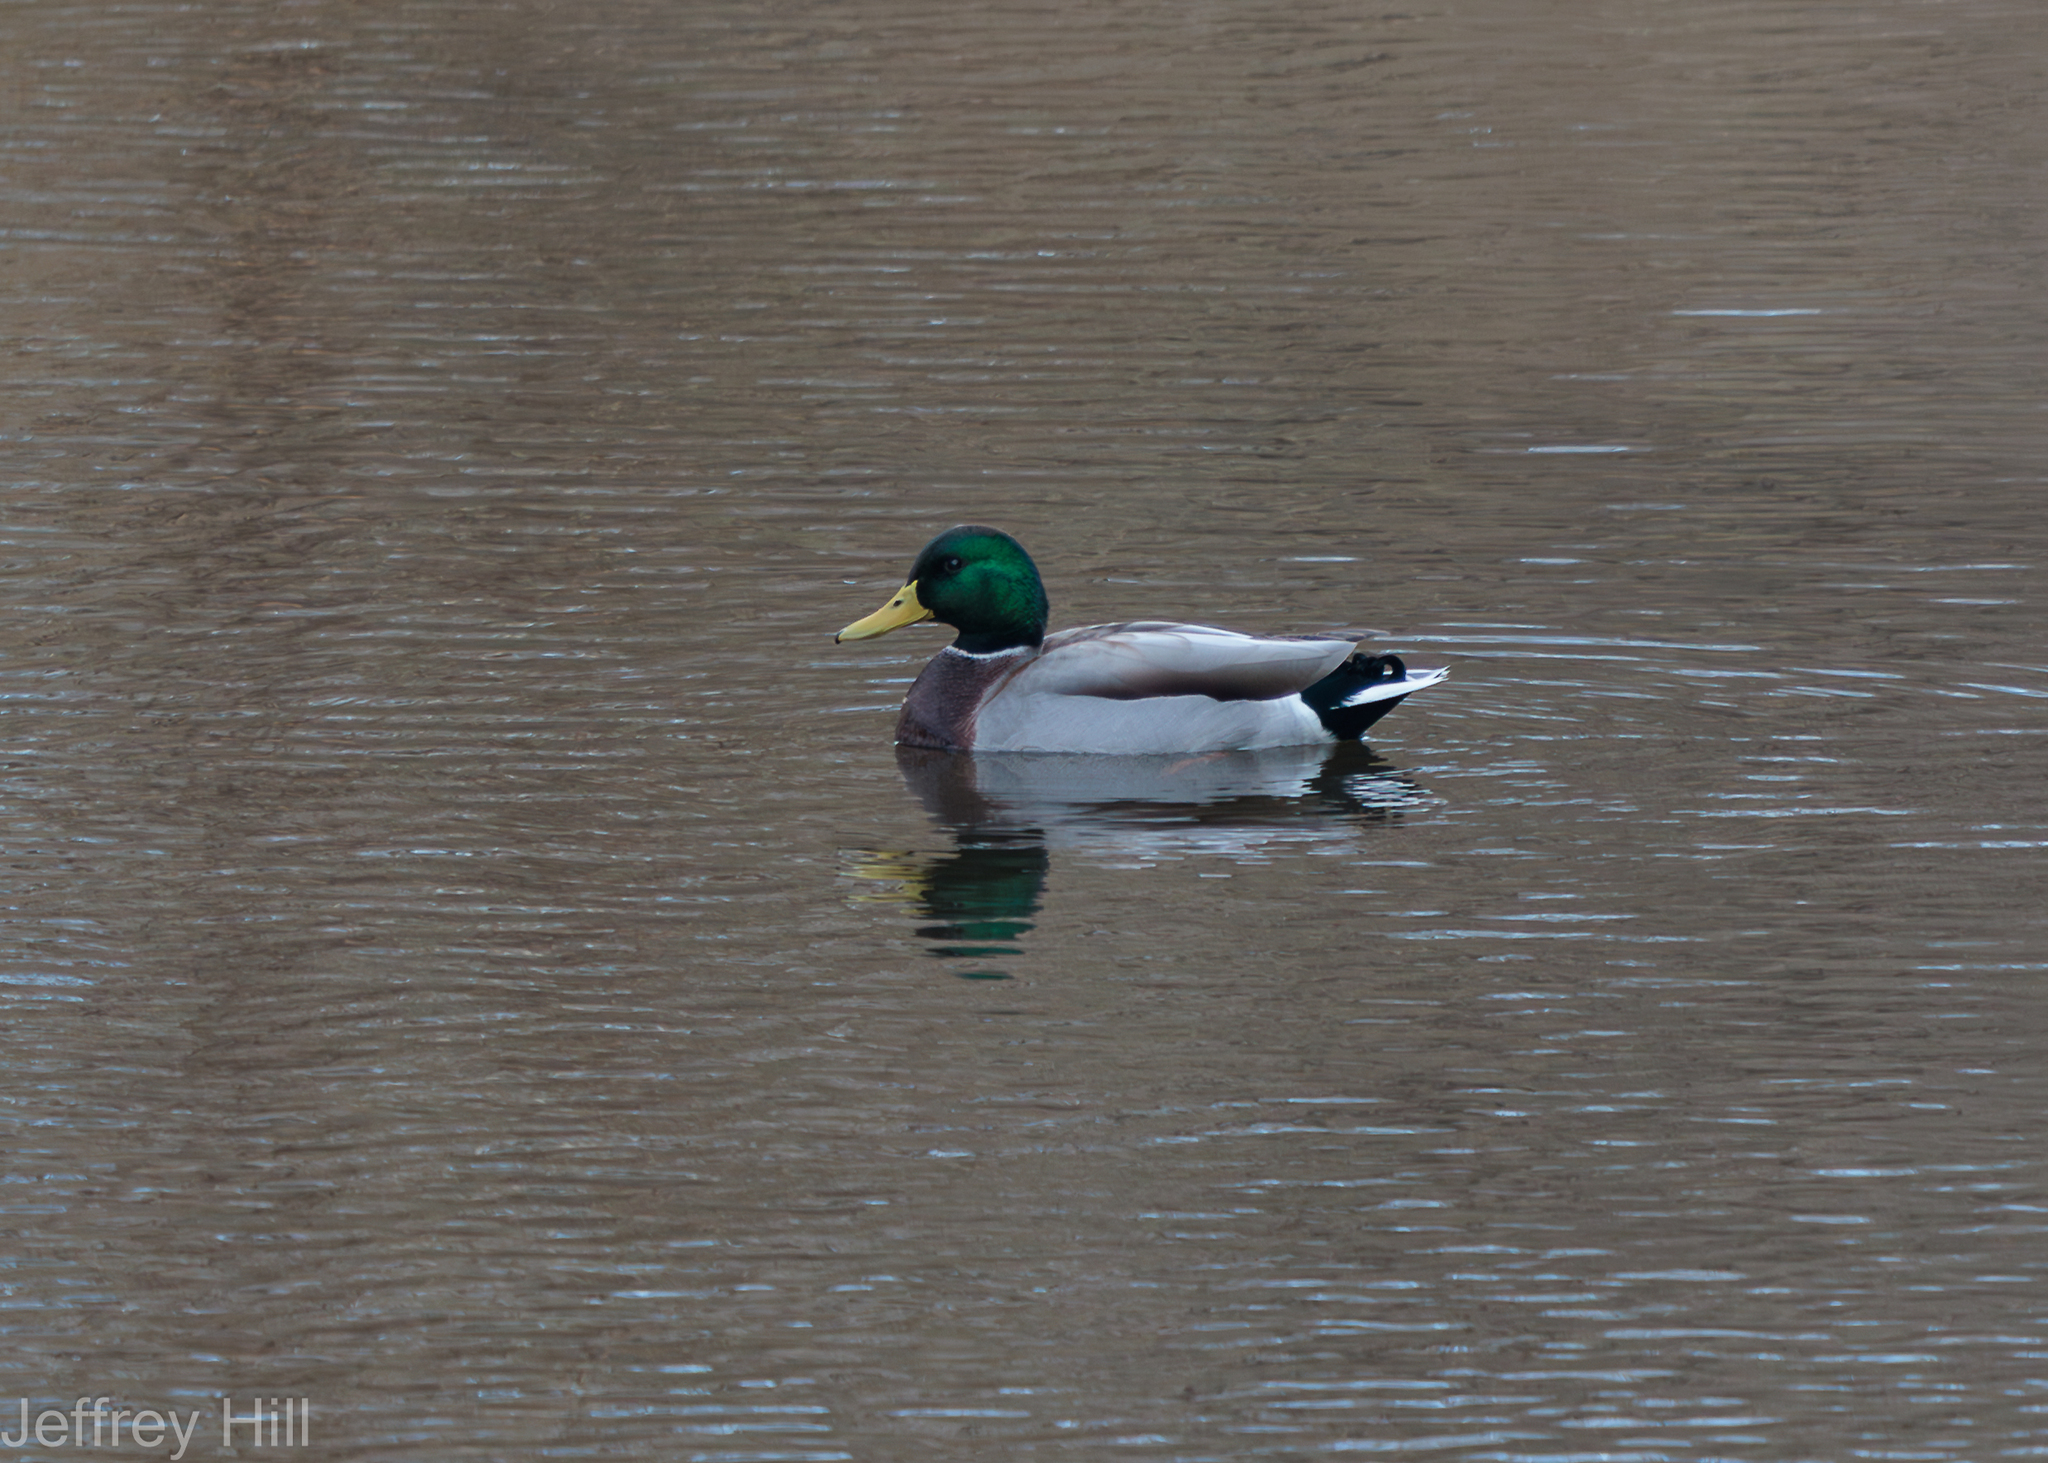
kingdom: Animalia
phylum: Chordata
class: Aves
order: Anseriformes
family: Anatidae
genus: Anas
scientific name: Anas platyrhynchos
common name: Mallard
